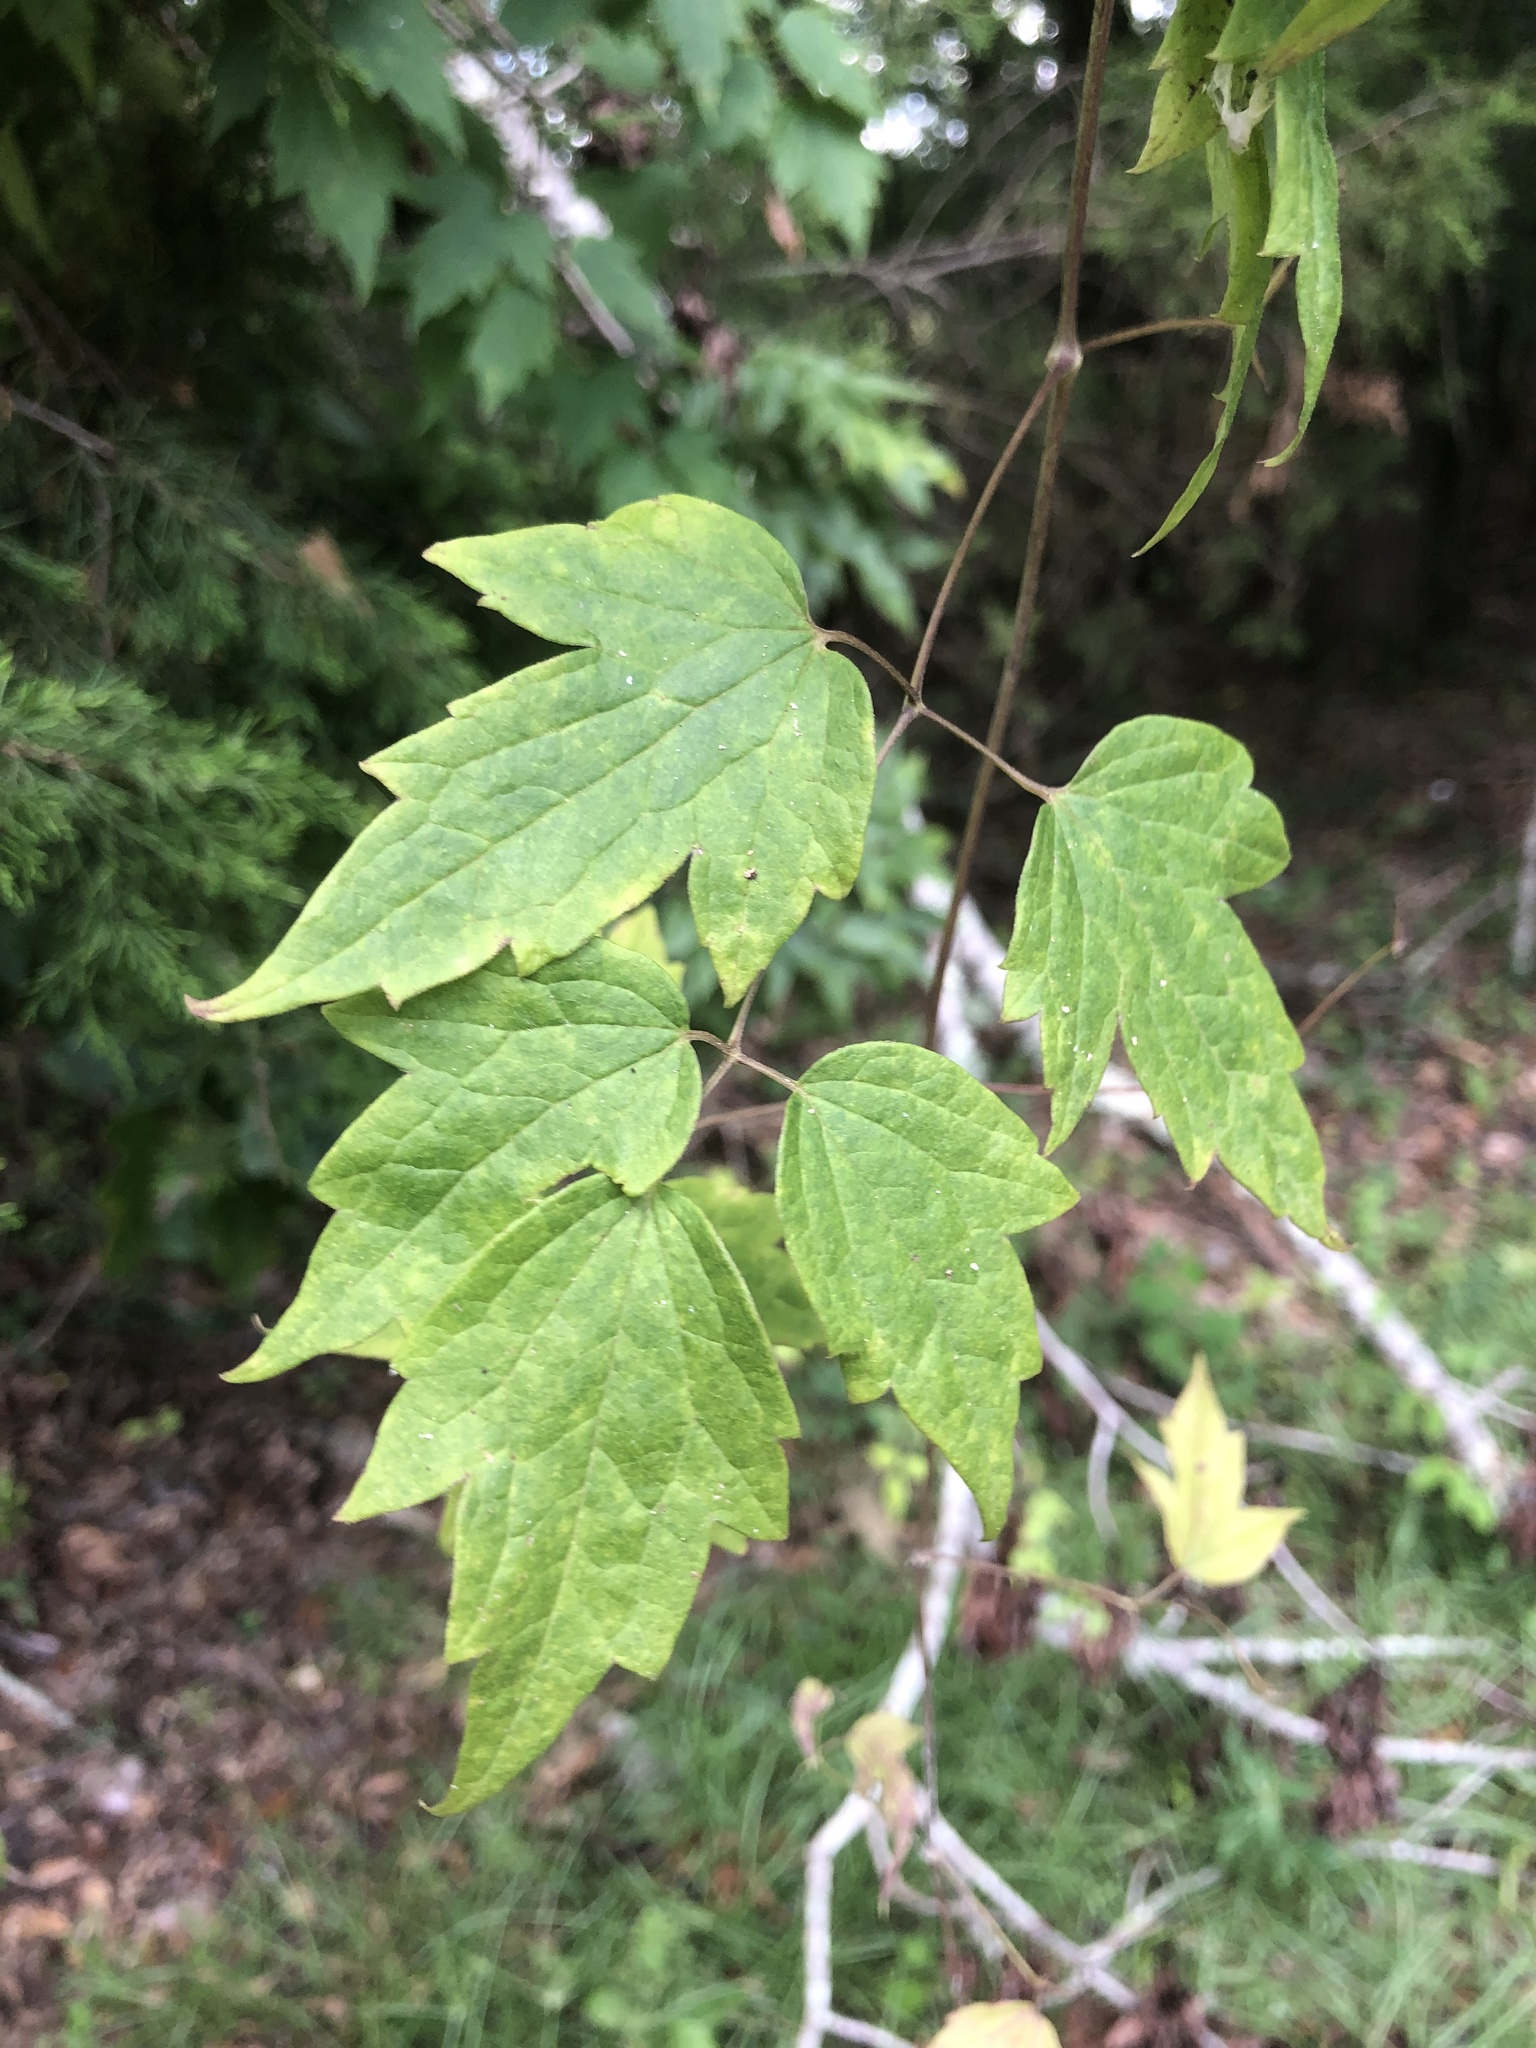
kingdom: Plantae
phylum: Tracheophyta
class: Magnoliopsida
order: Ranunculales
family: Ranunculaceae
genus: Clematis
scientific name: Clematis catesbyana
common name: Virgin's bower
